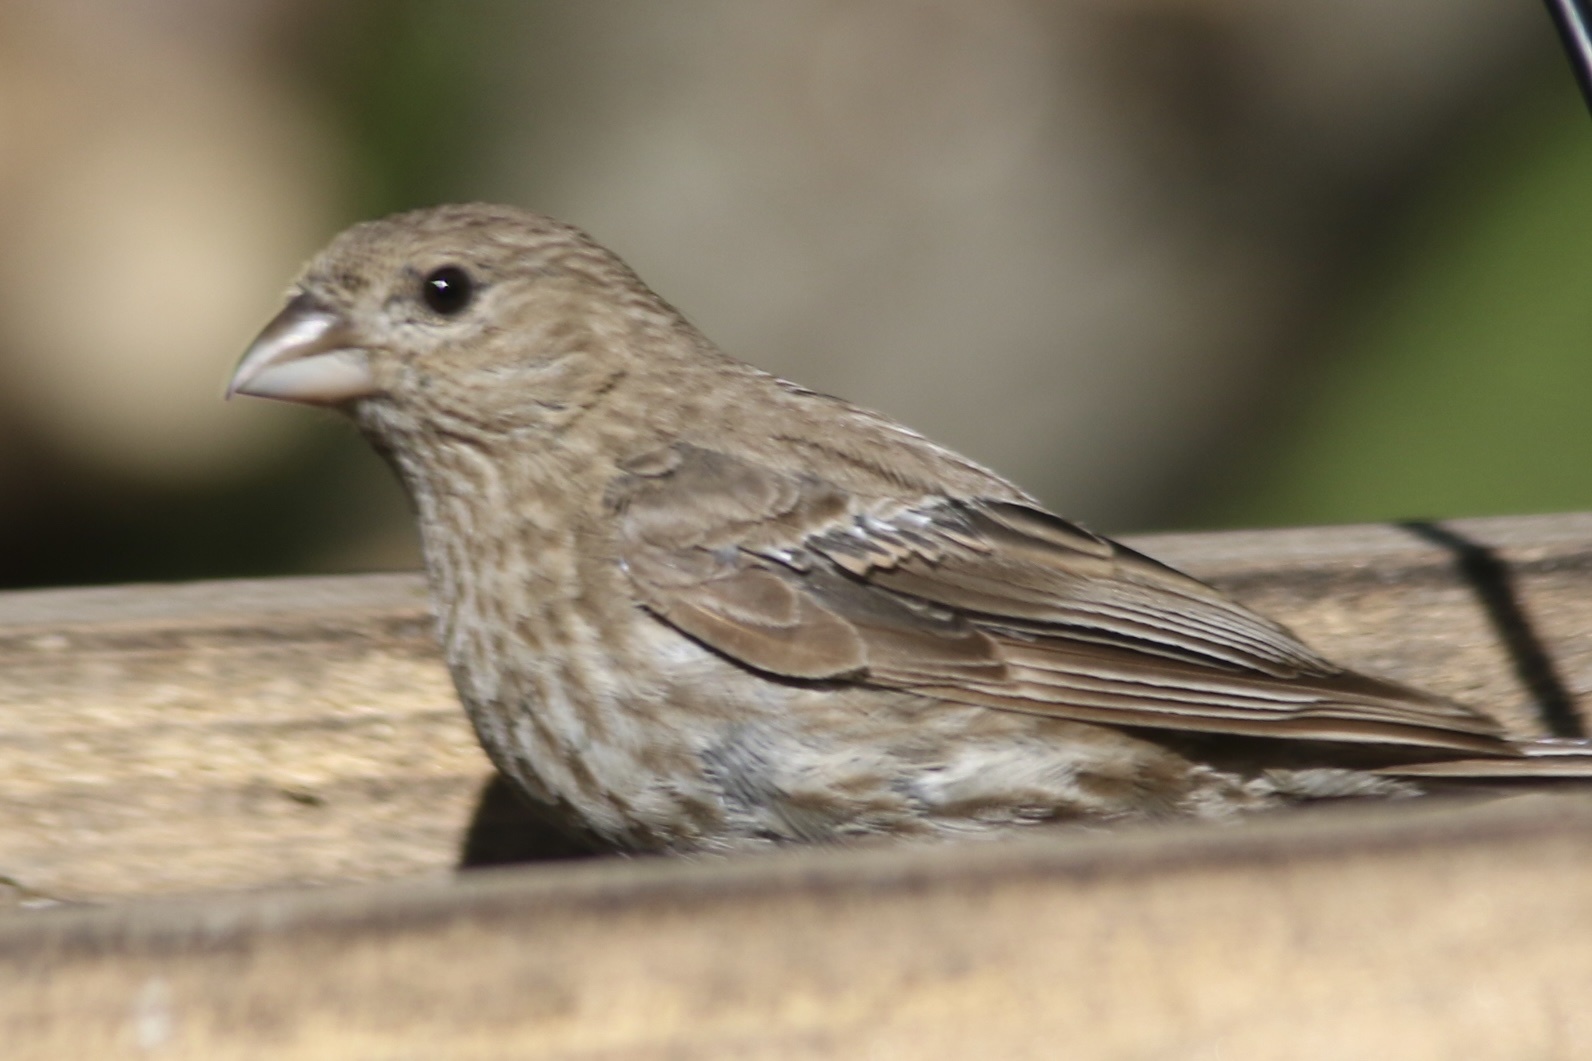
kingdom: Animalia
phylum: Chordata
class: Aves
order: Passeriformes
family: Fringillidae
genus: Haemorhous
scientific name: Haemorhous mexicanus
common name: House finch
